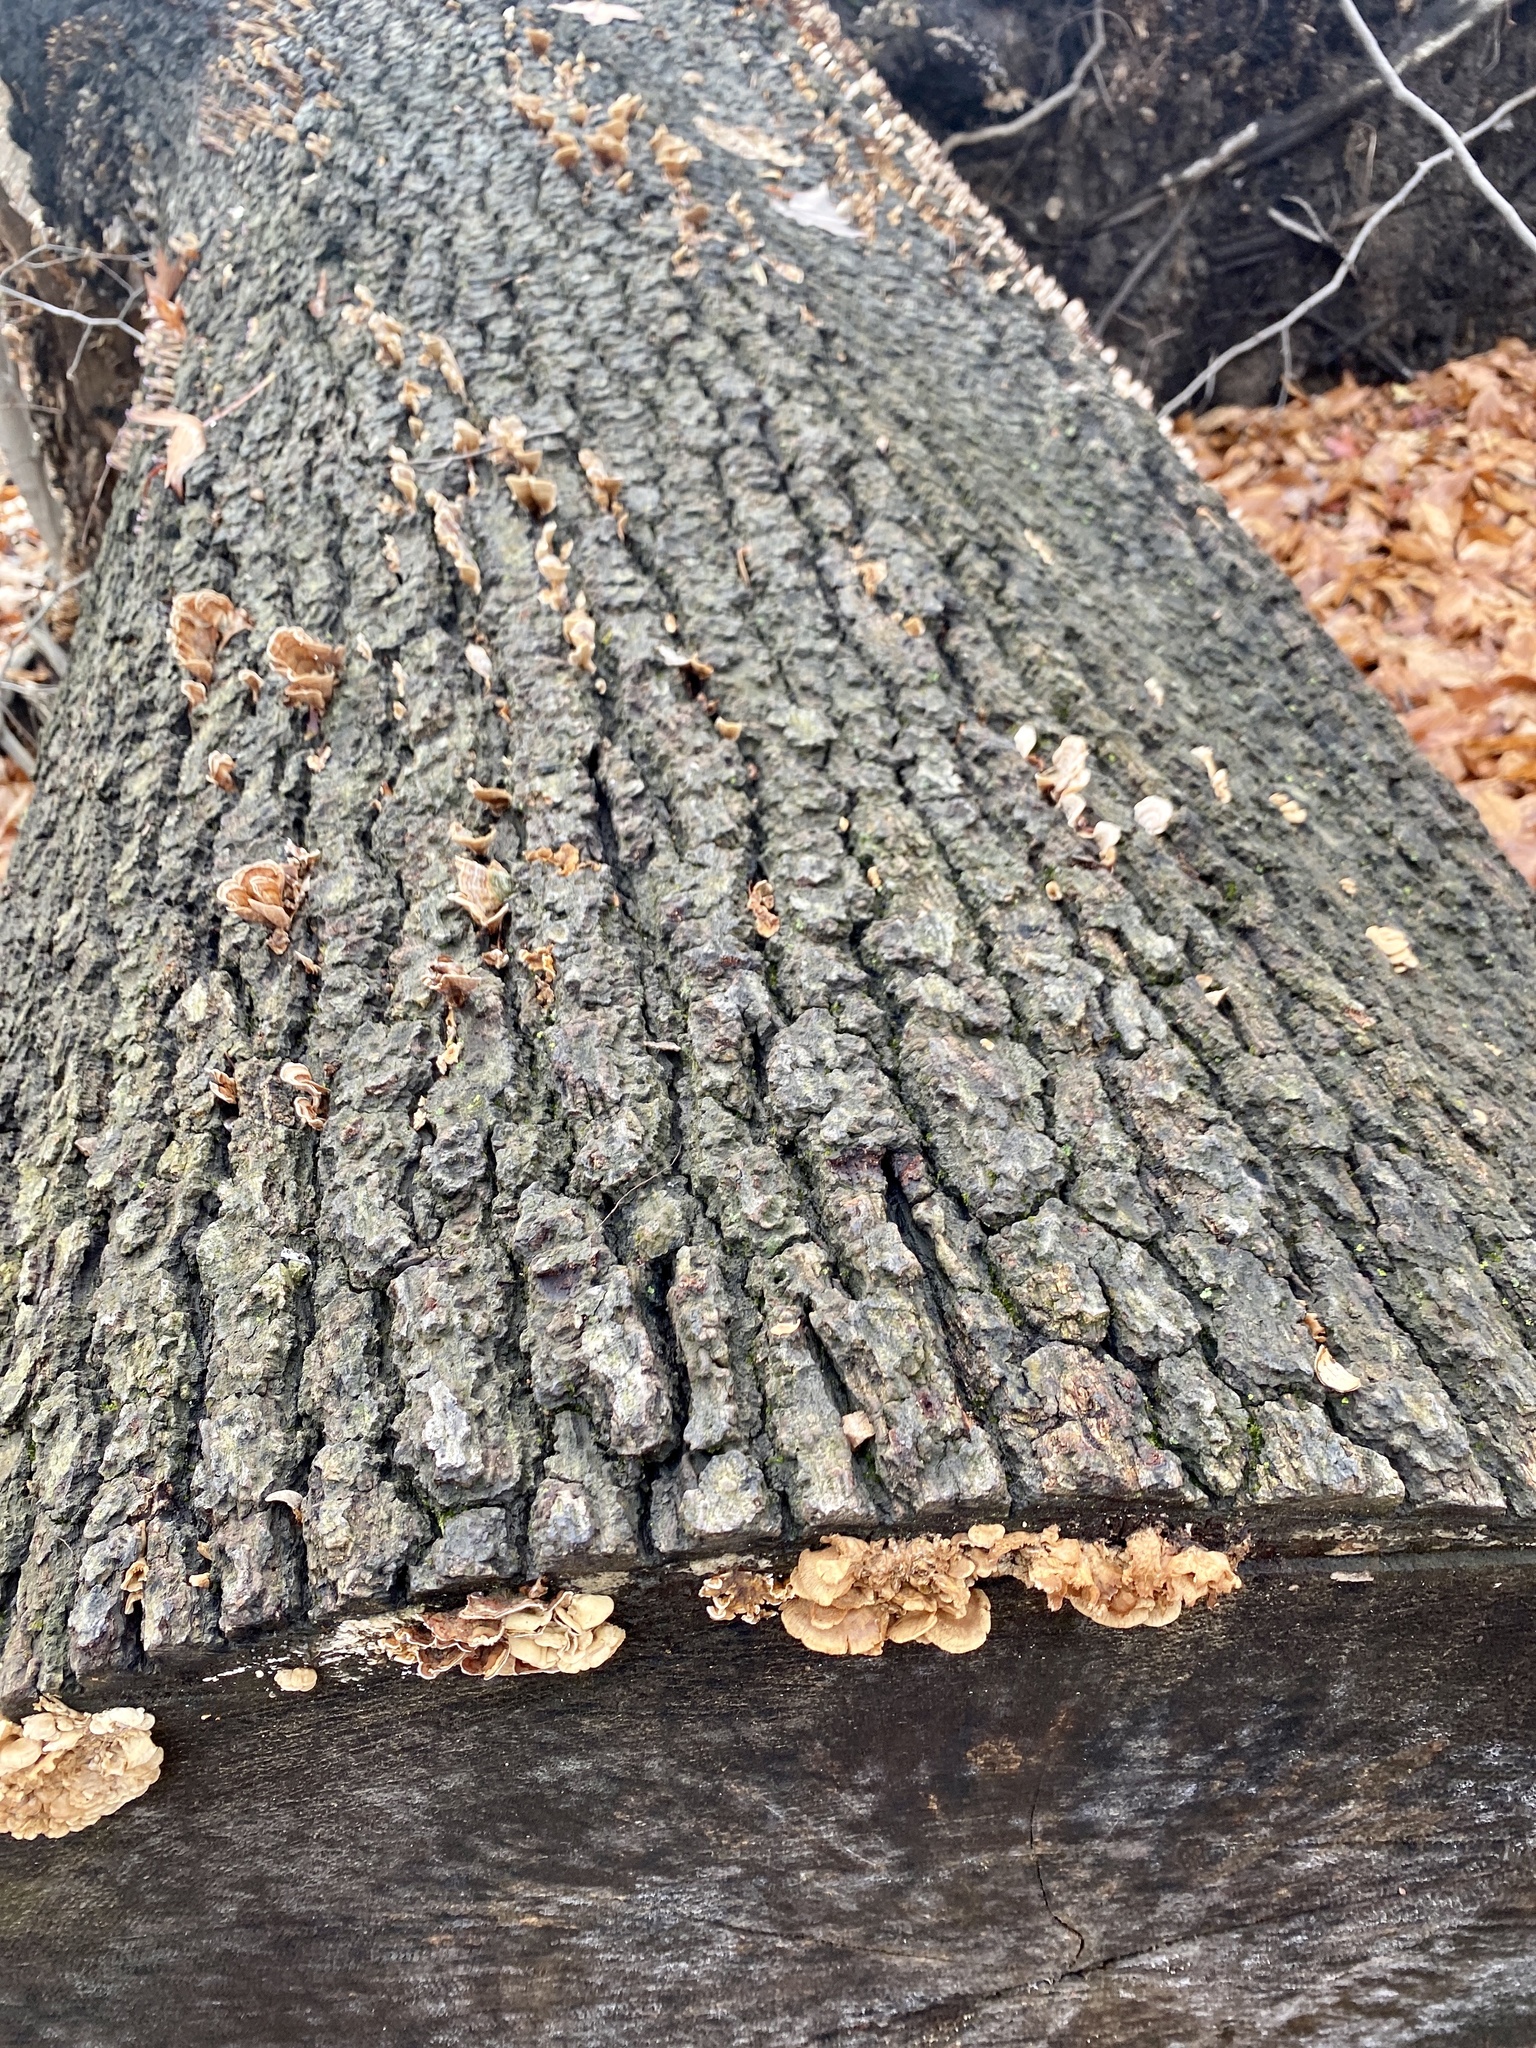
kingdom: Fungi
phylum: Basidiomycota
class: Agaricomycetes
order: Agaricales
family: Mycenaceae
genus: Panellus
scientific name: Panellus stipticus
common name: Bitter oysterling
